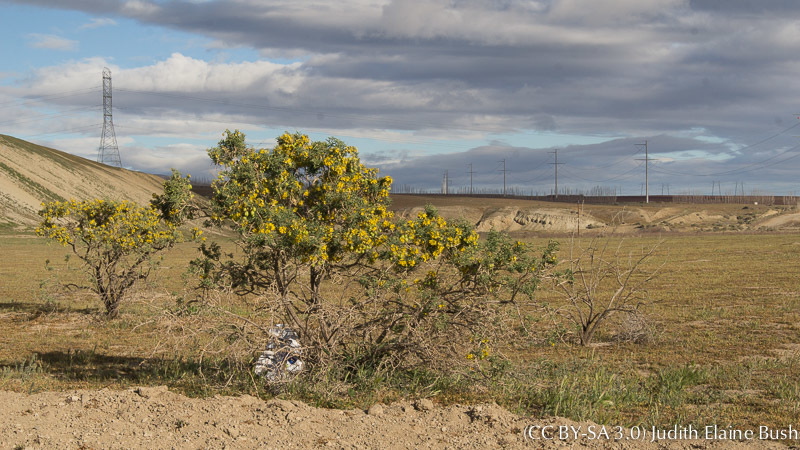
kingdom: Plantae
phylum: Tracheophyta
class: Magnoliopsida
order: Brassicales
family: Cleomaceae
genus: Cleomella
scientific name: Cleomella arborea
